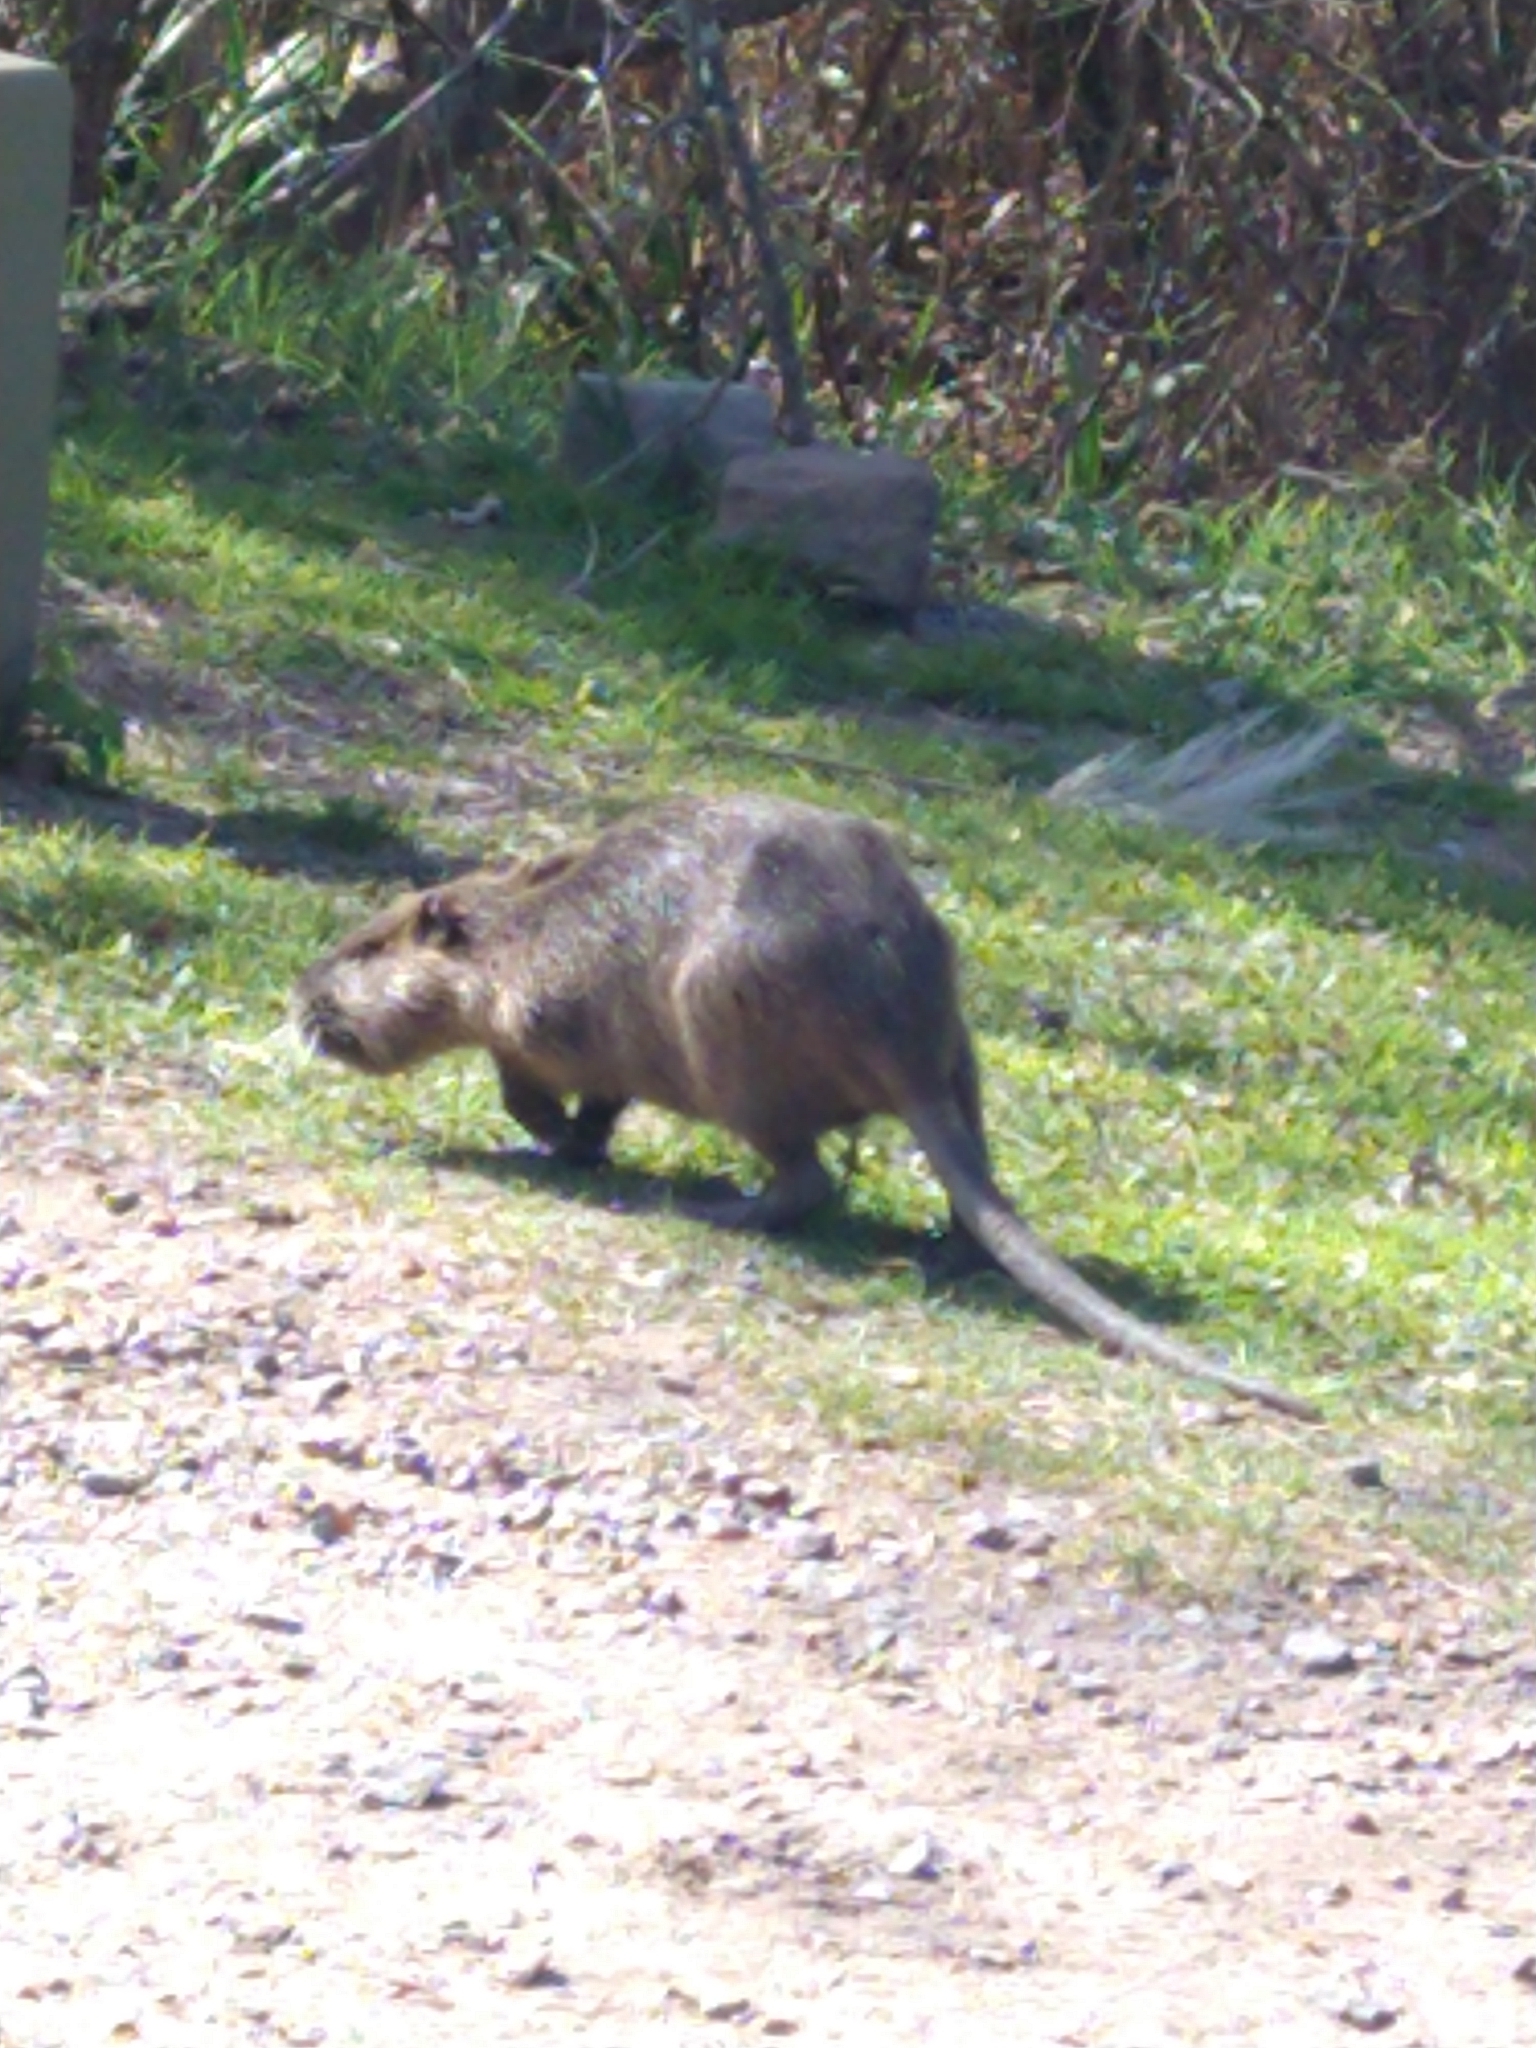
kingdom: Animalia
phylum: Chordata
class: Mammalia
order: Rodentia
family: Myocastoridae
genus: Myocastor
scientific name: Myocastor coypus
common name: Coypu
